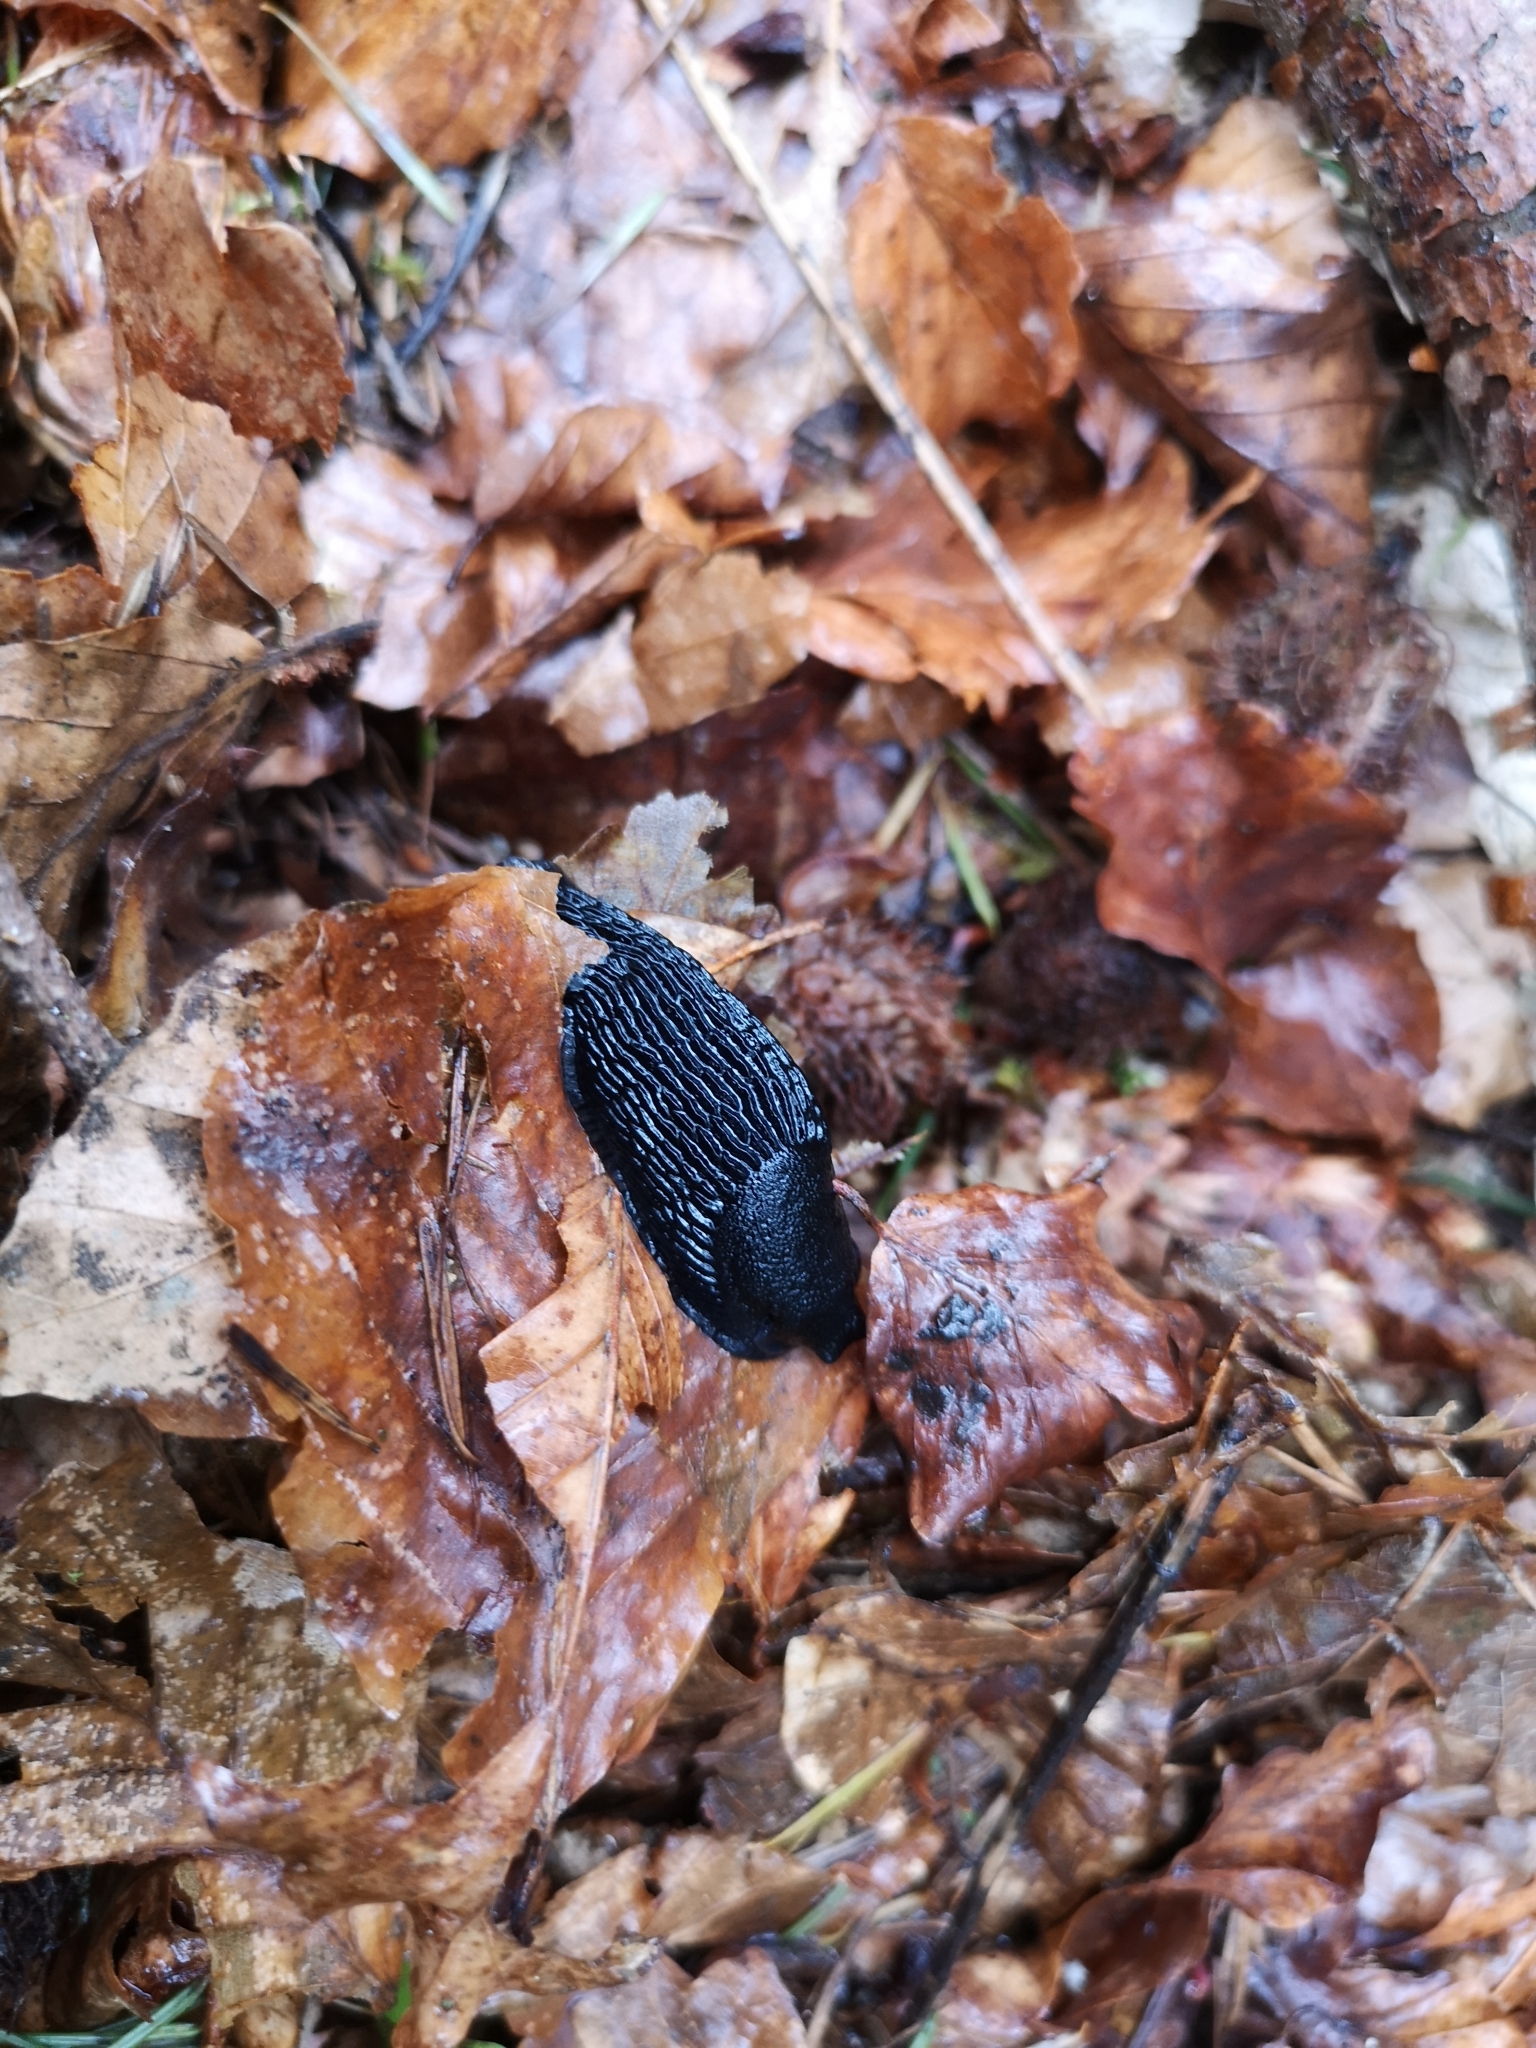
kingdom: Animalia
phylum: Mollusca
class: Gastropoda
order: Stylommatophora
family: Arionidae
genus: Arion
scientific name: Arion ater
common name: Black arion
